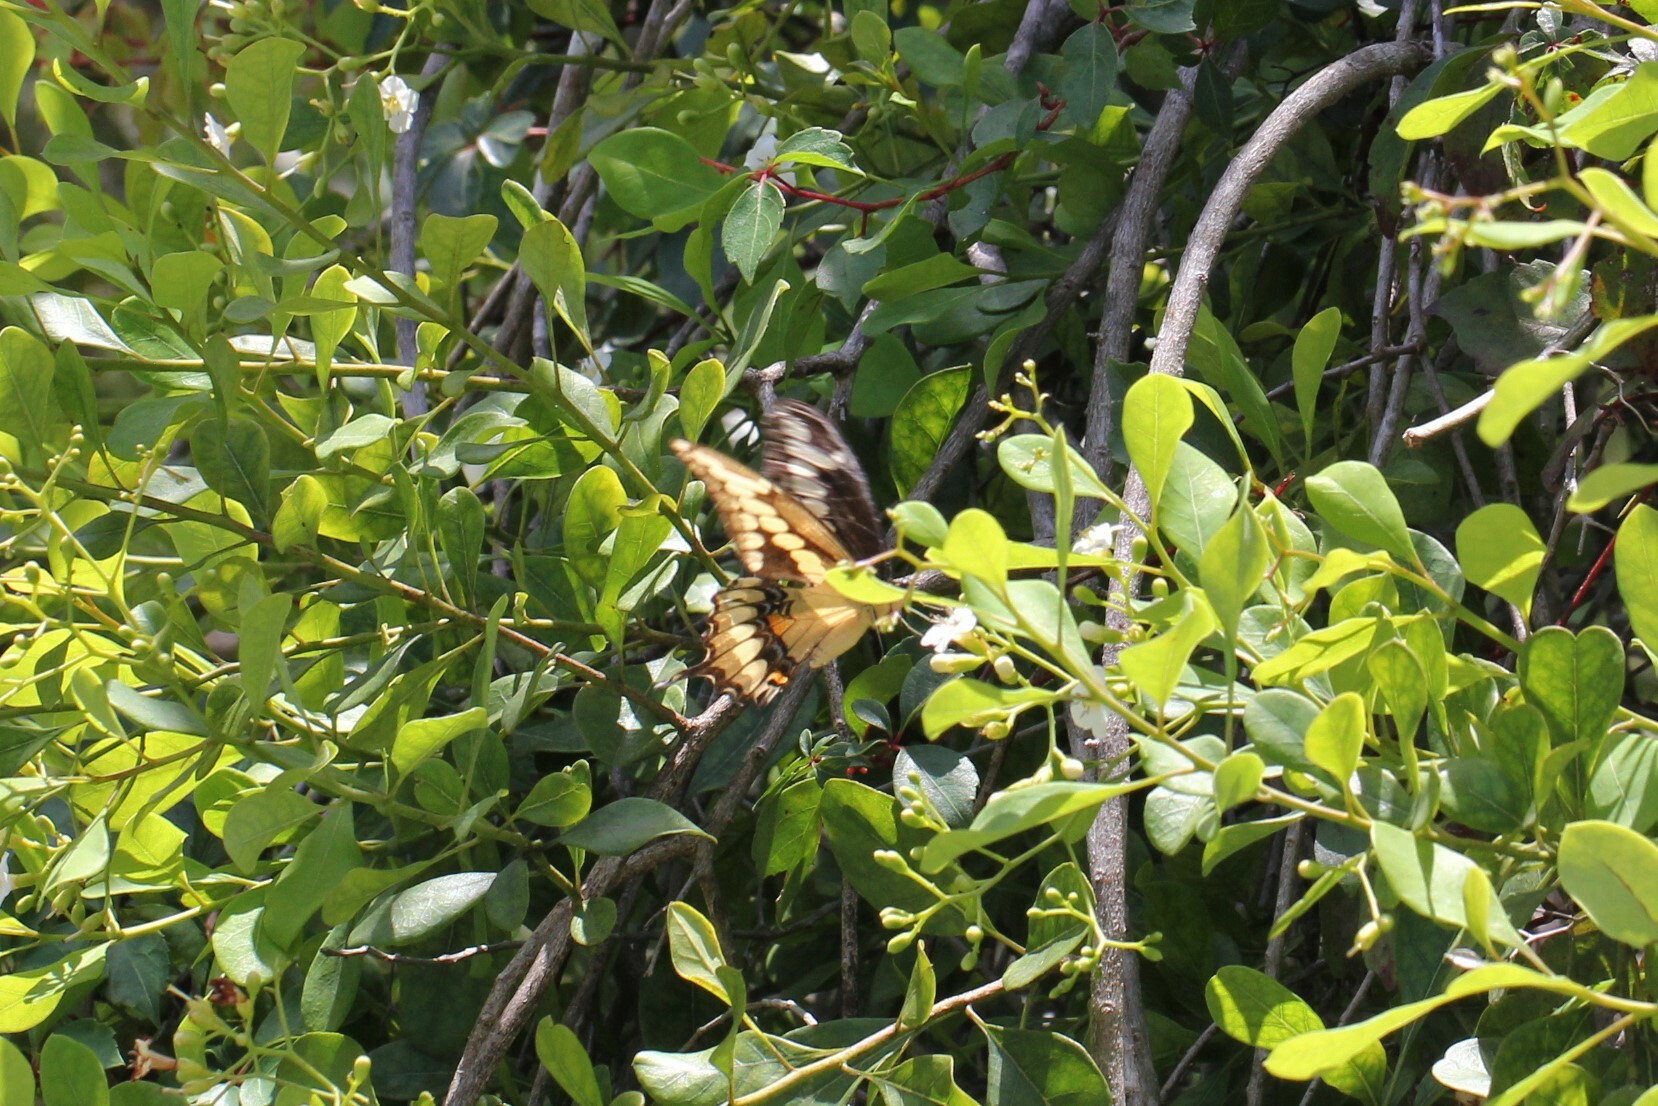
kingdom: Animalia
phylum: Arthropoda
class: Insecta
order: Lepidoptera
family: Papilionidae
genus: Papilio
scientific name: Papilio cresphontes
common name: Giant swallowtail
